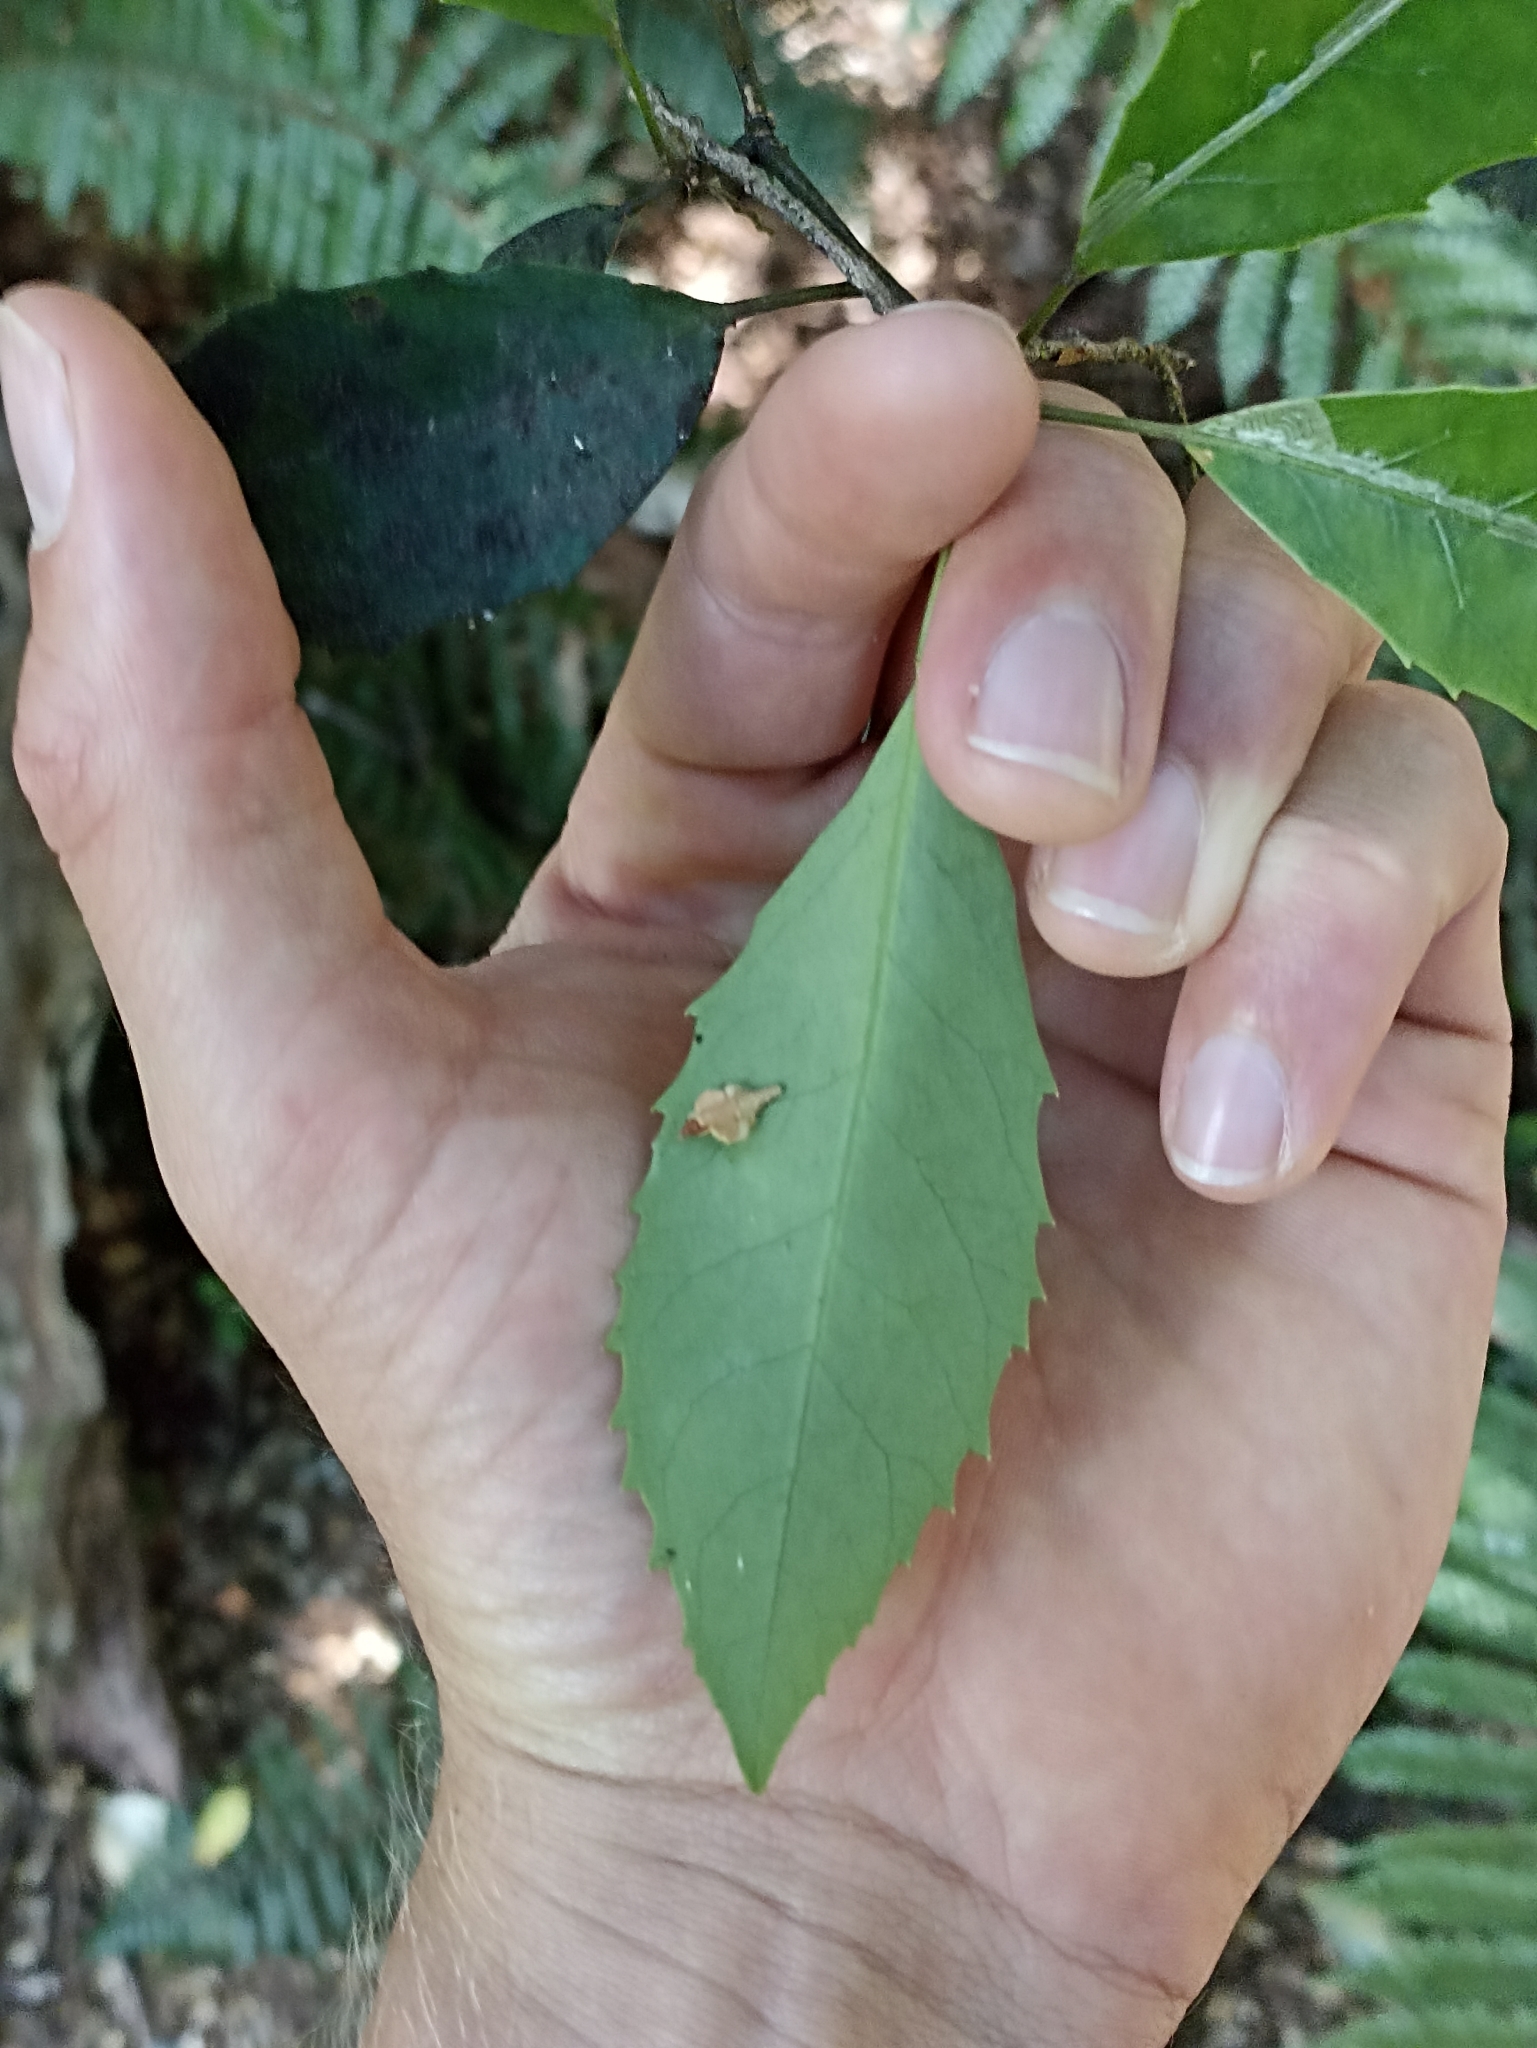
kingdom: Plantae
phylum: Tracheophyta
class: Magnoliopsida
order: Apiales
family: Araliaceae
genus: Raukaua
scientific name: Raukaua simplex
